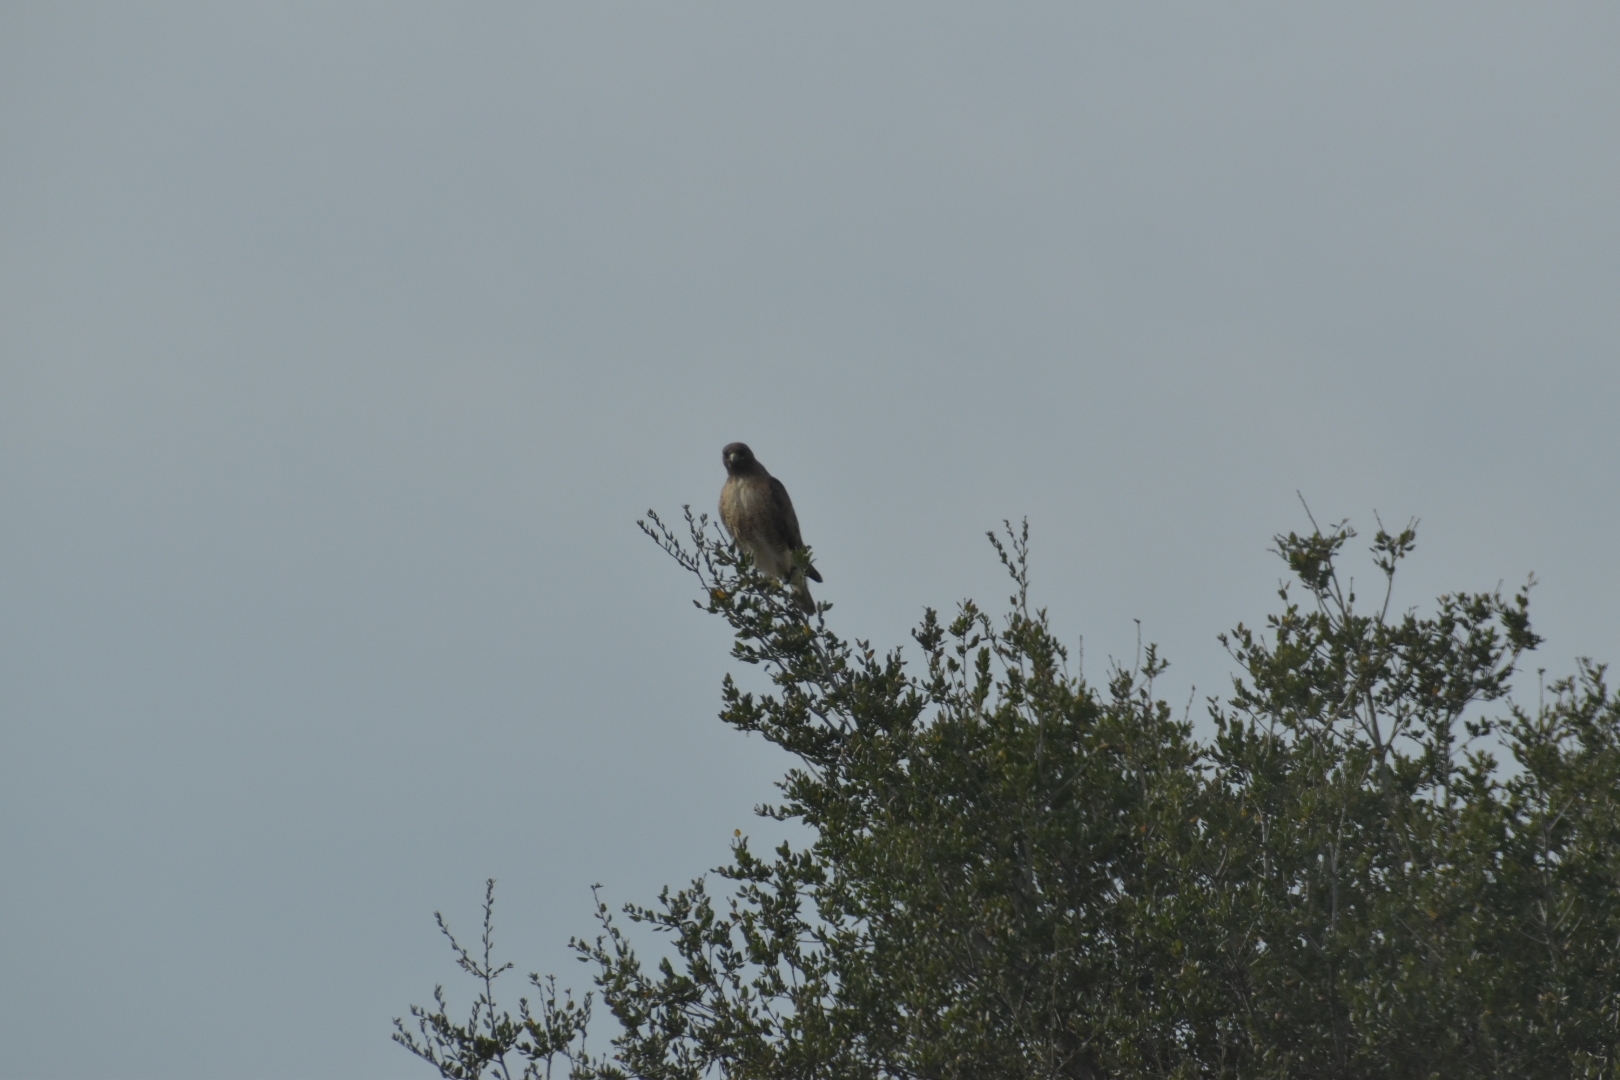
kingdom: Animalia
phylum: Chordata
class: Aves
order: Accipitriformes
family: Accipitridae
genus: Buteo
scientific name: Buteo jamaicensis
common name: Red-tailed hawk
